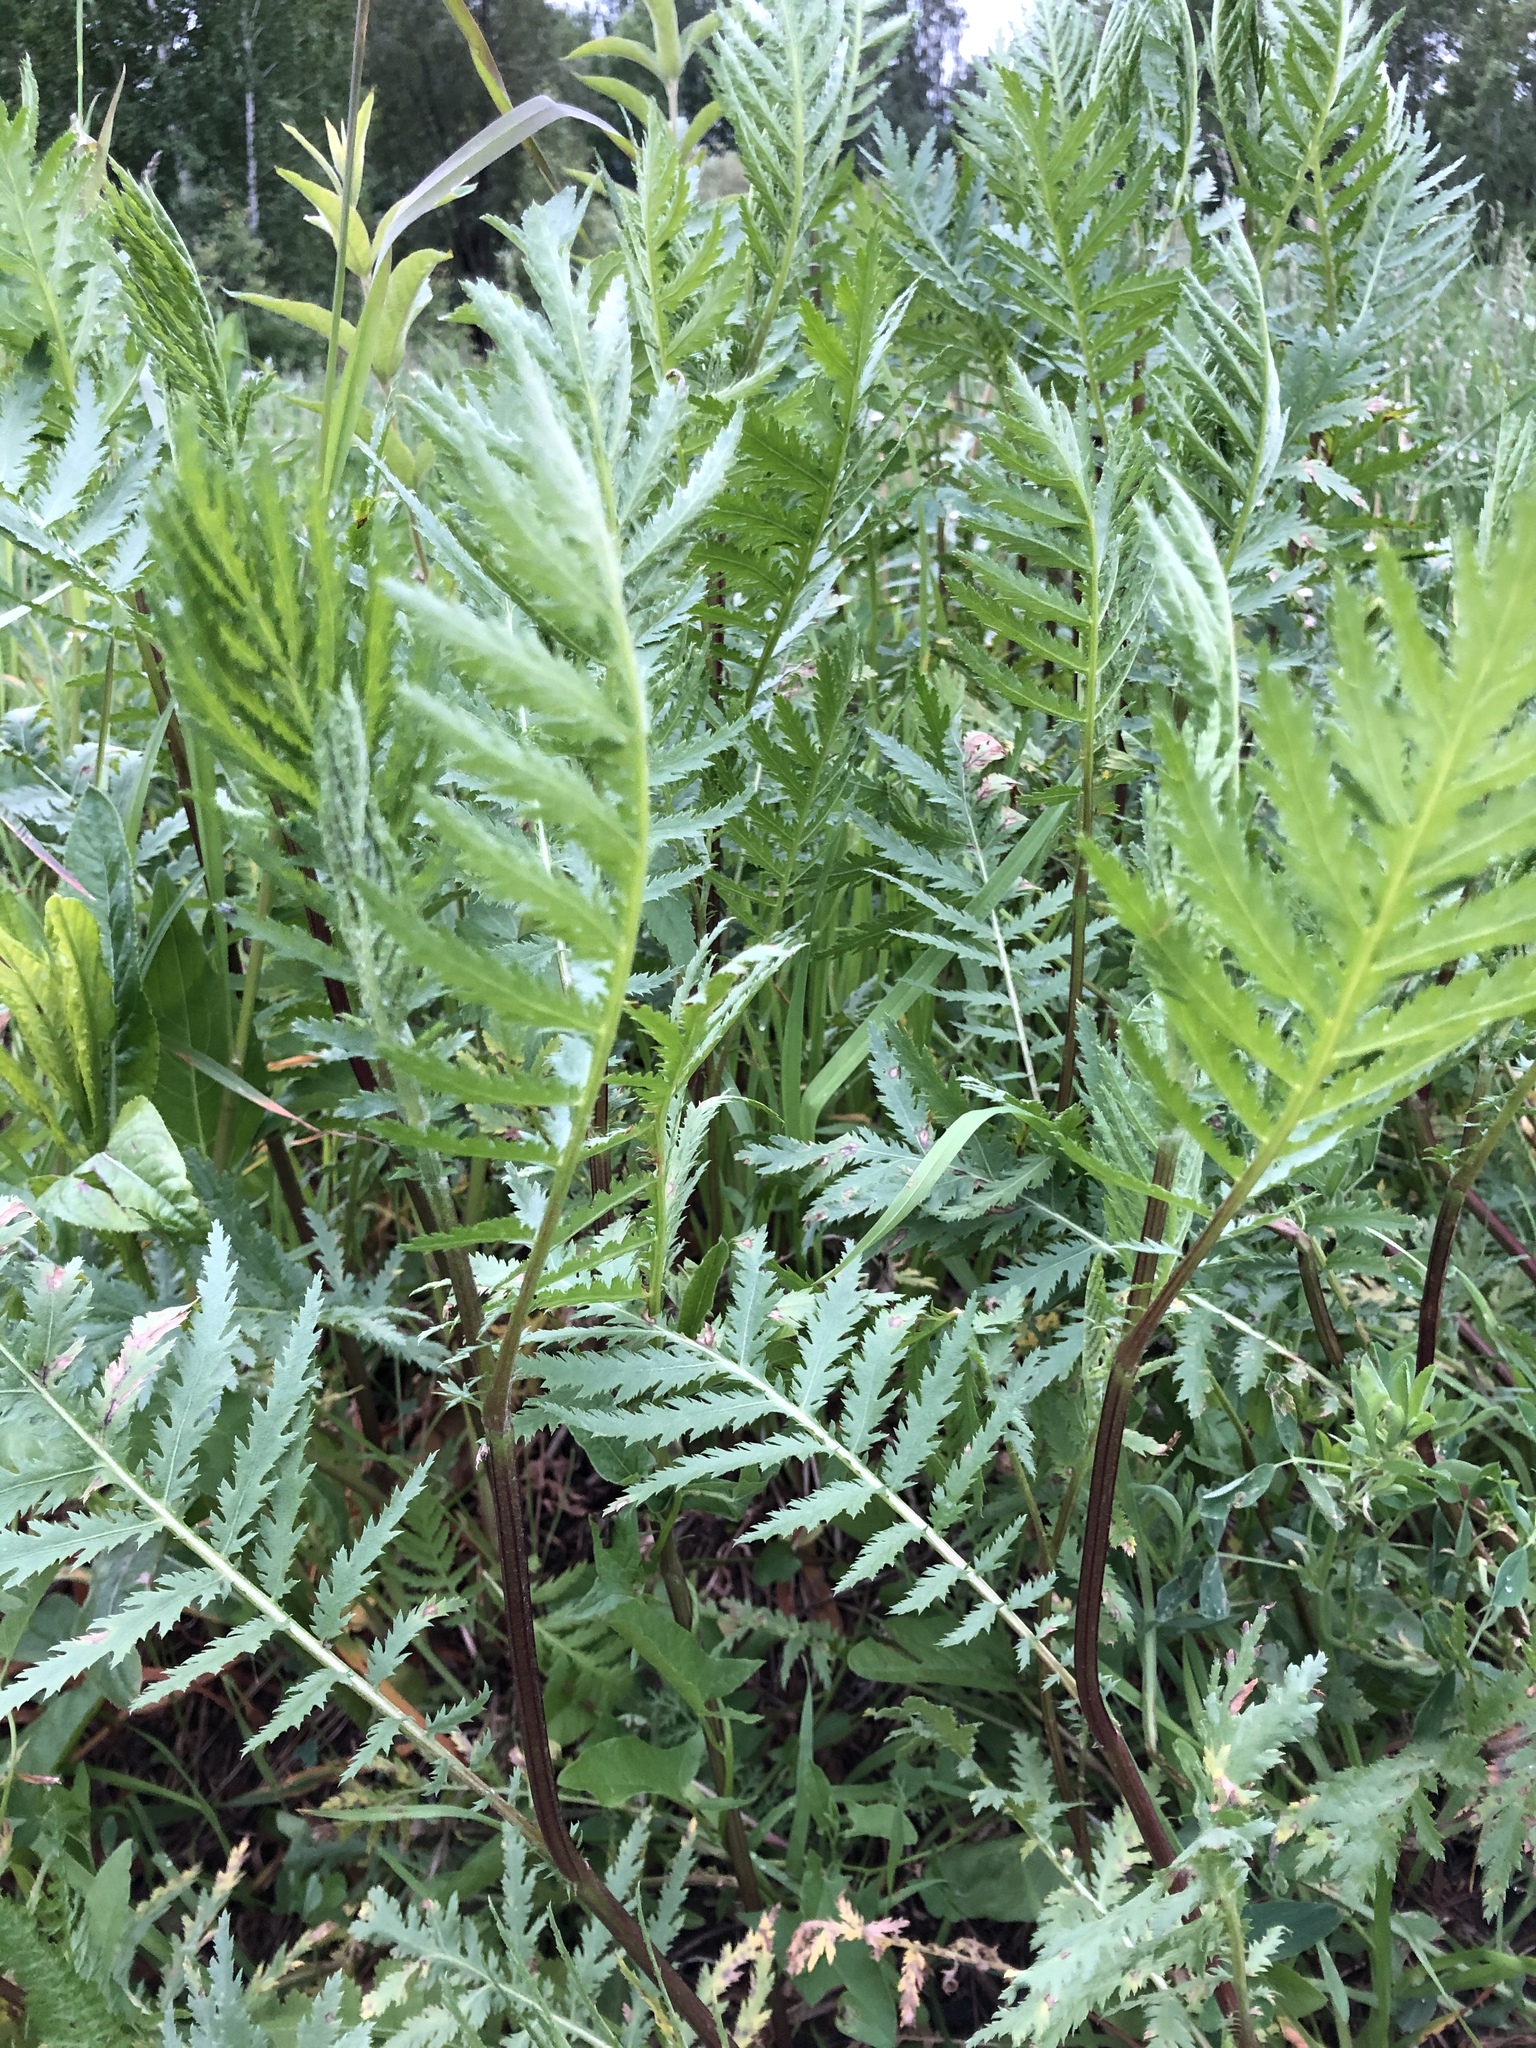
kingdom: Plantae
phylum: Tracheophyta
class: Magnoliopsida
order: Asterales
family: Asteraceae
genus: Tanacetum
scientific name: Tanacetum vulgare
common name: Common tansy
